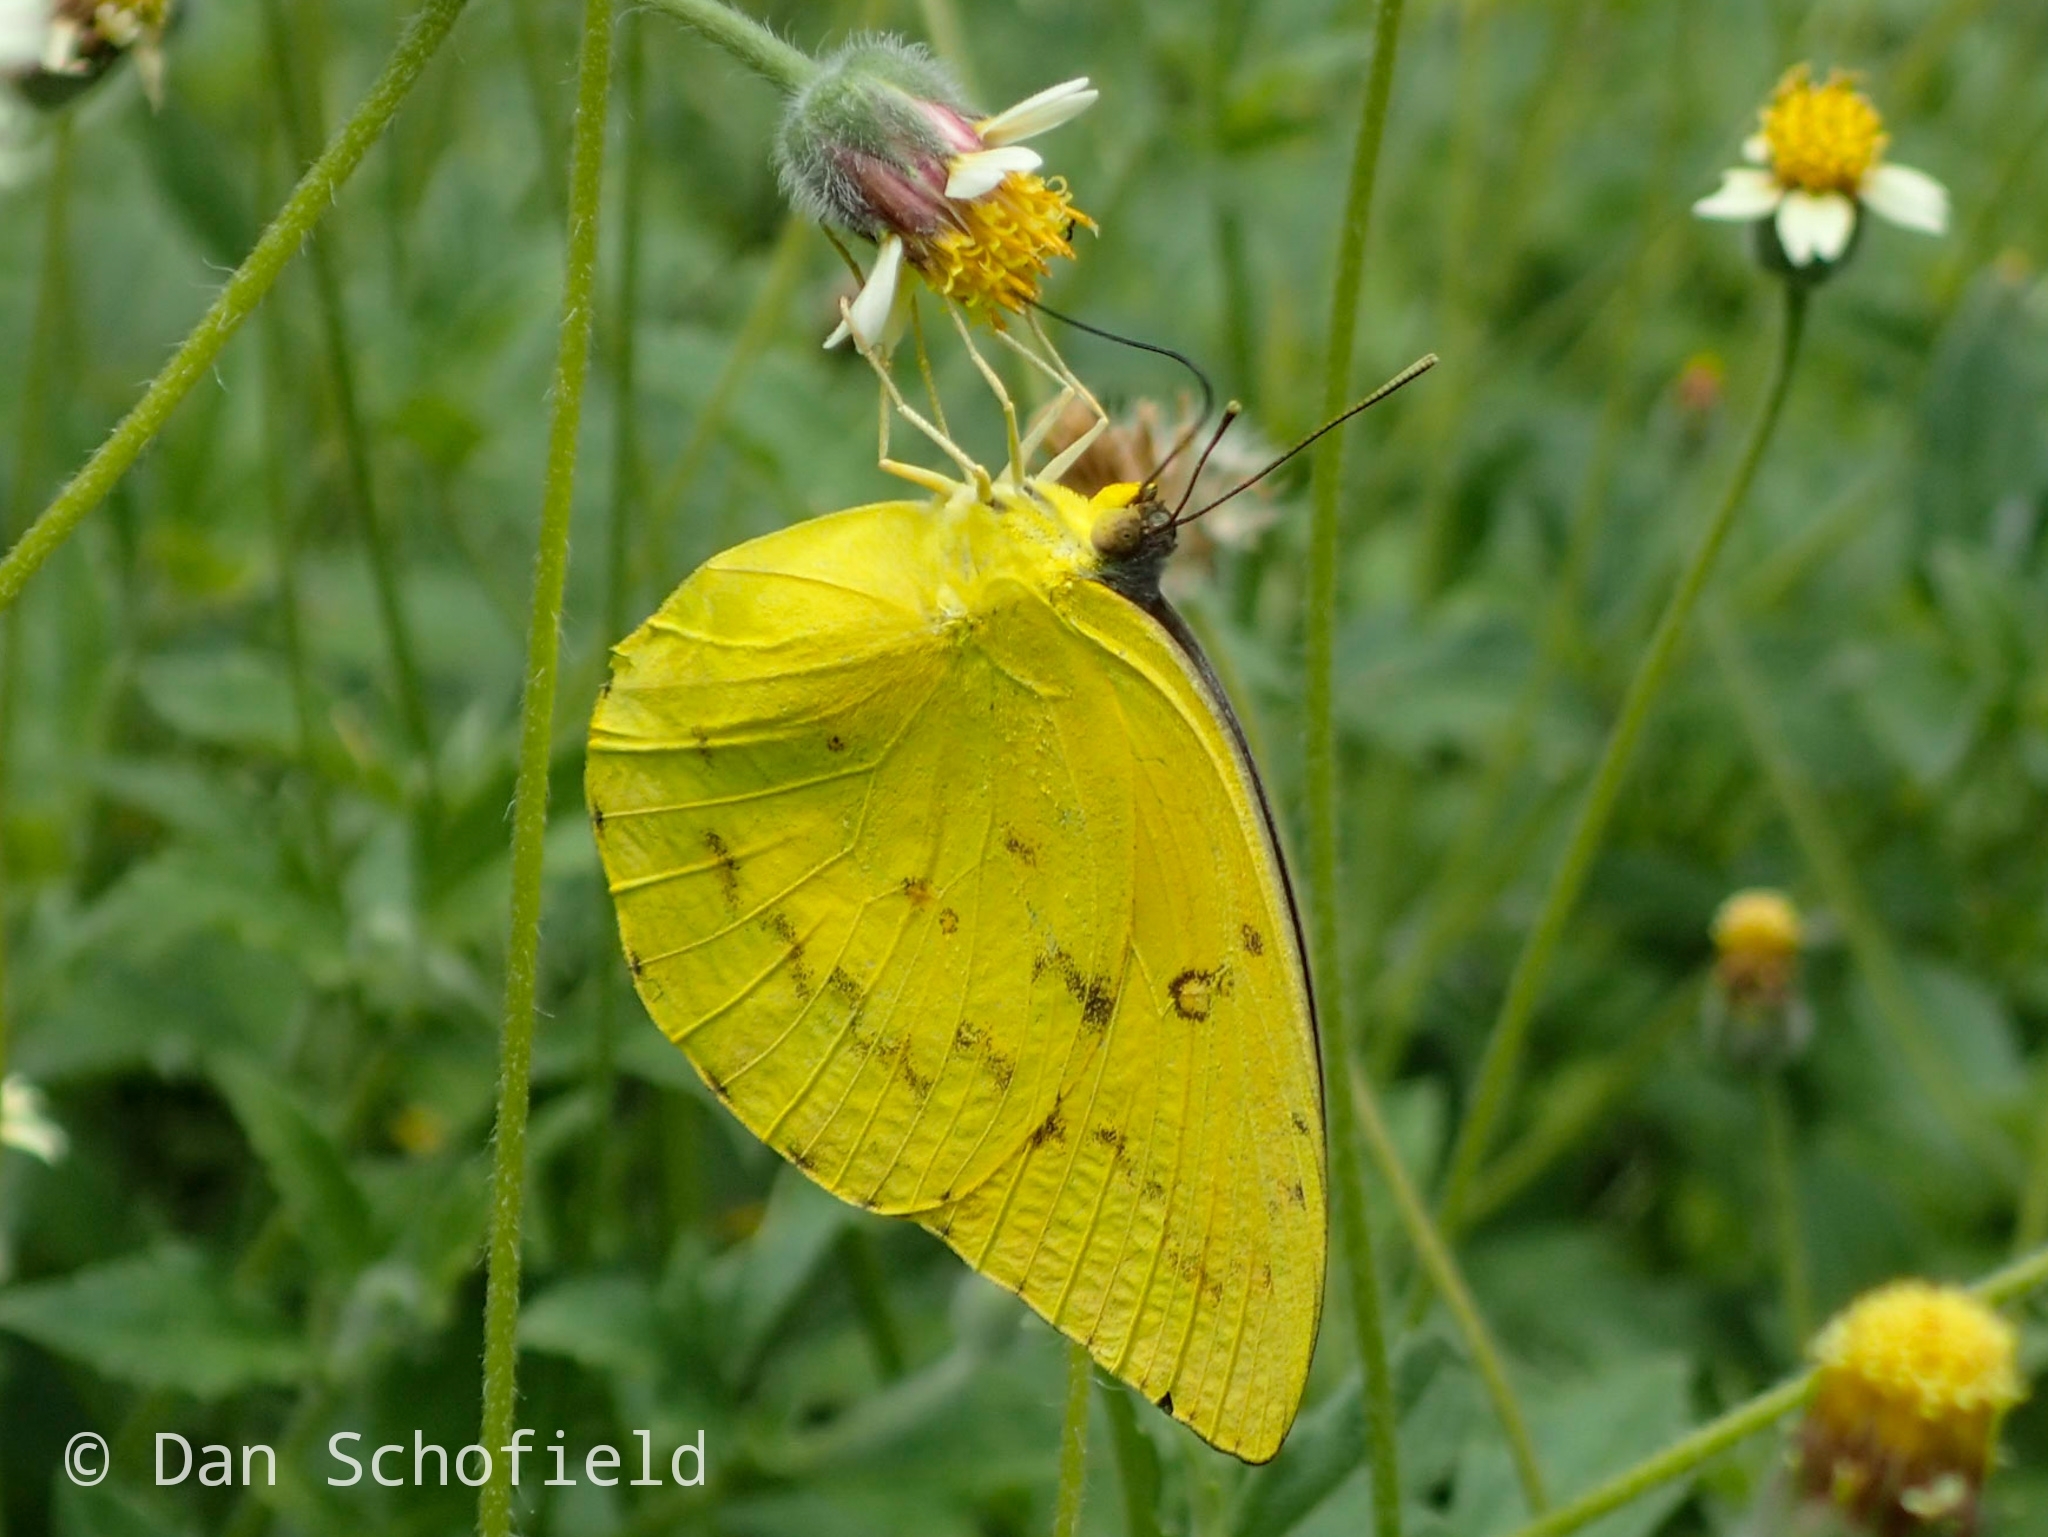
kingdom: Animalia
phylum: Arthropoda
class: Insecta
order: Lepidoptera
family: Pieridae
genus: Catopsilia
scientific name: Catopsilia scylla
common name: Orange emigrant
